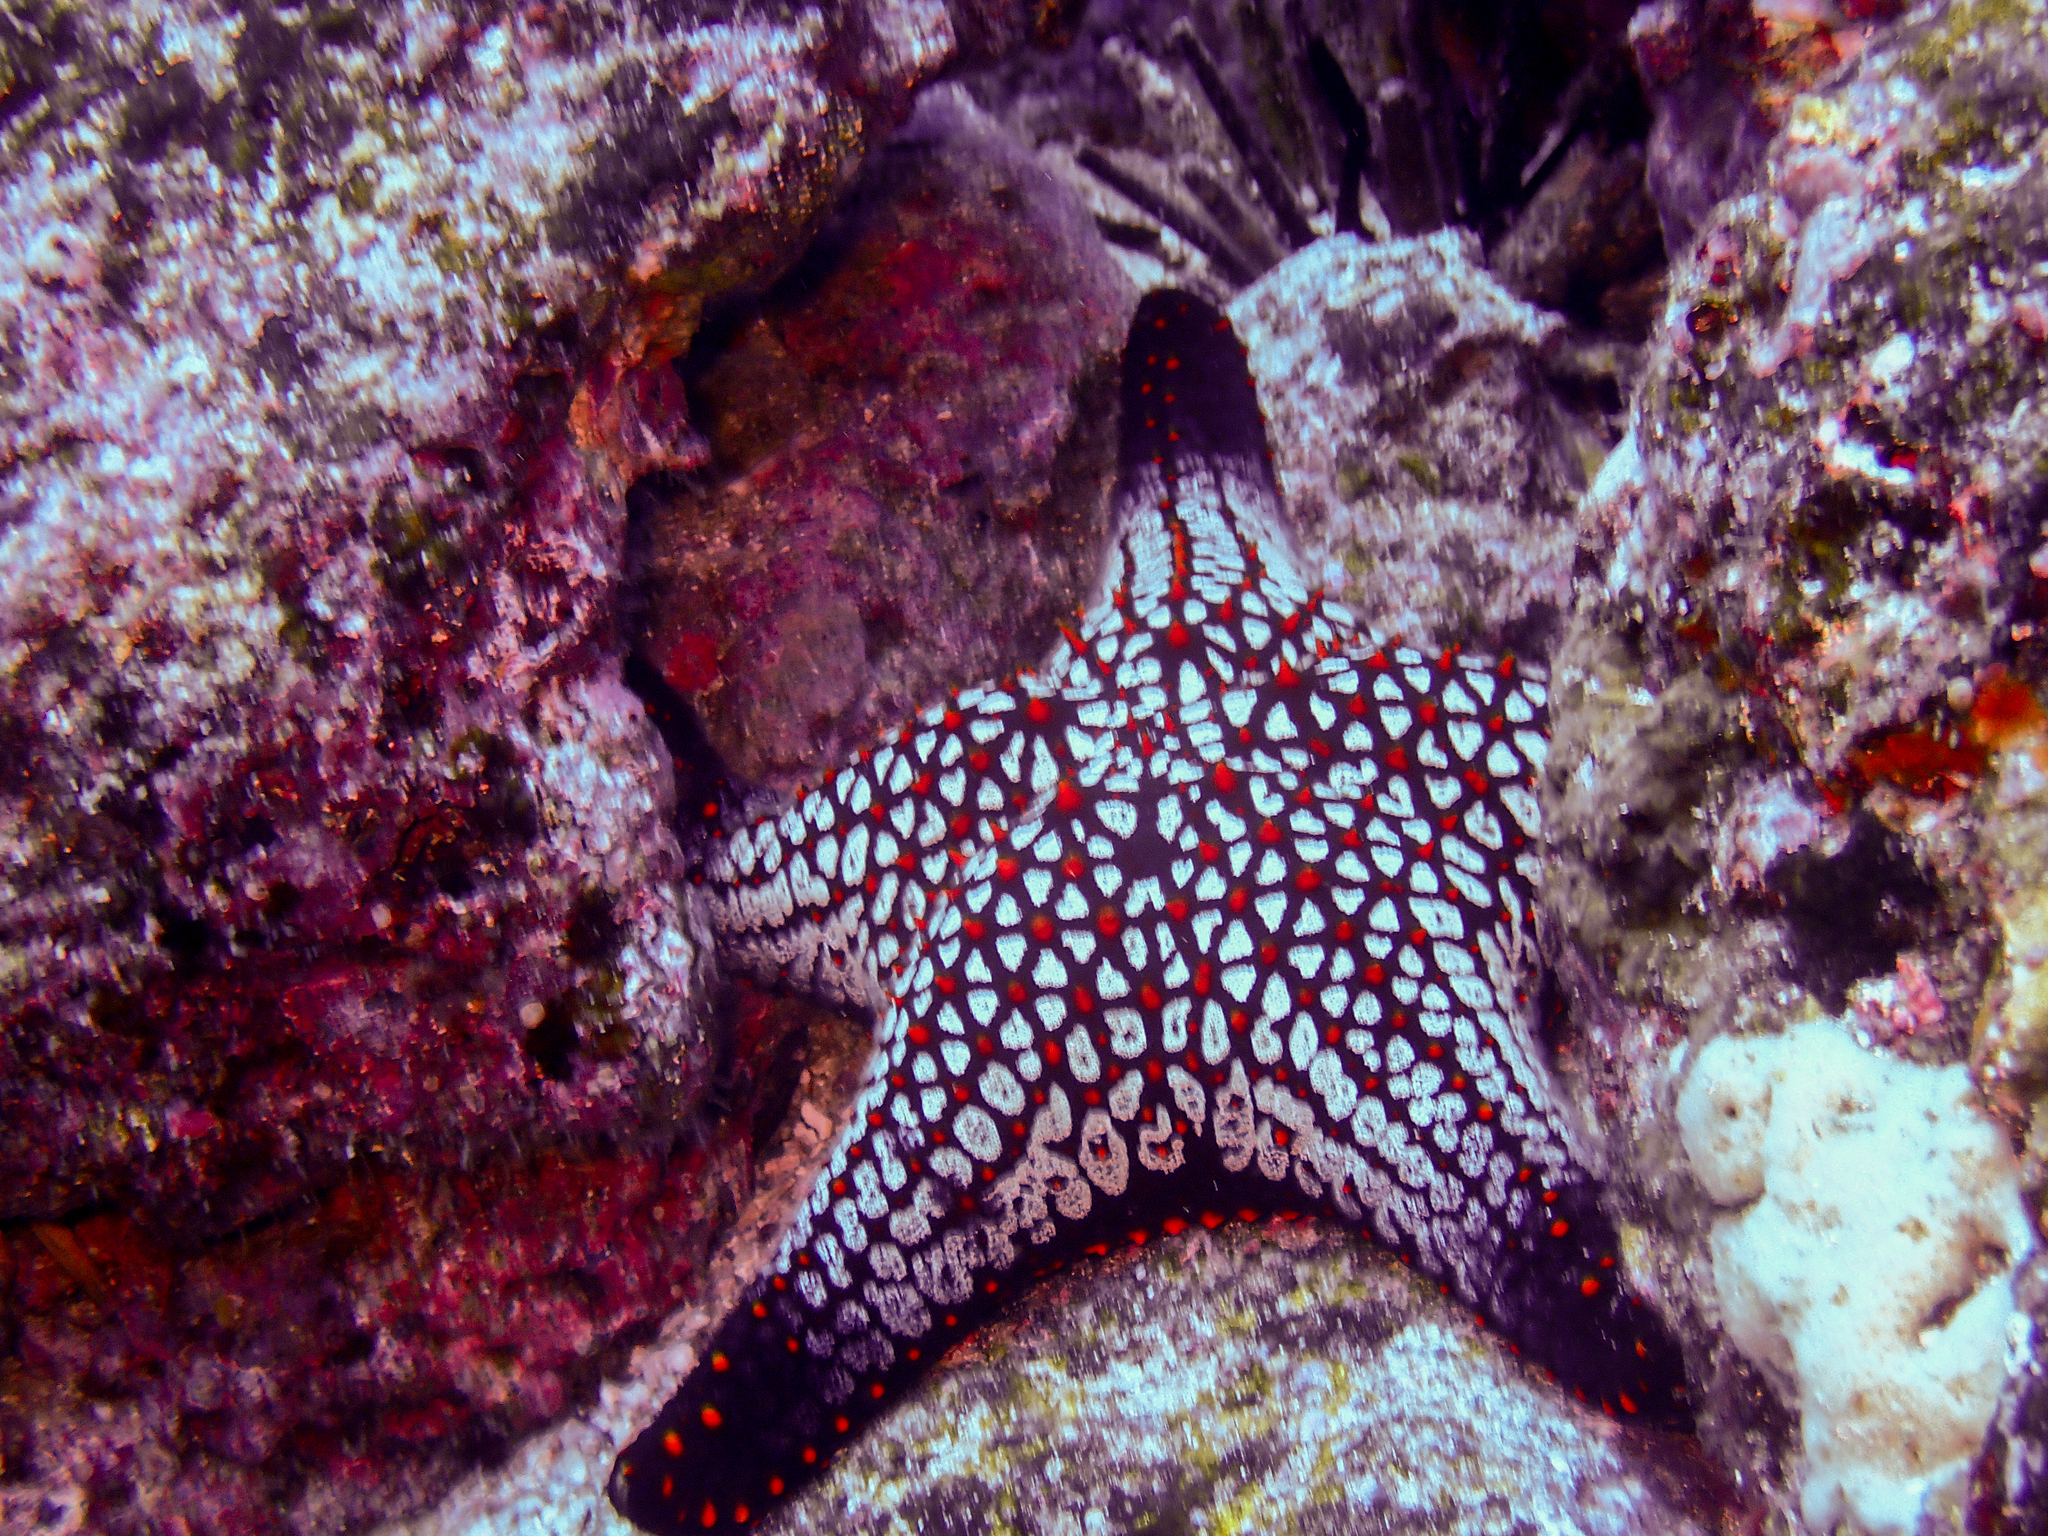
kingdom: Animalia
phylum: Echinodermata
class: Asteroidea
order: Valvatida
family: Oreasteridae
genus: Pentaceraster
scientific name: Pentaceraster cumingi
